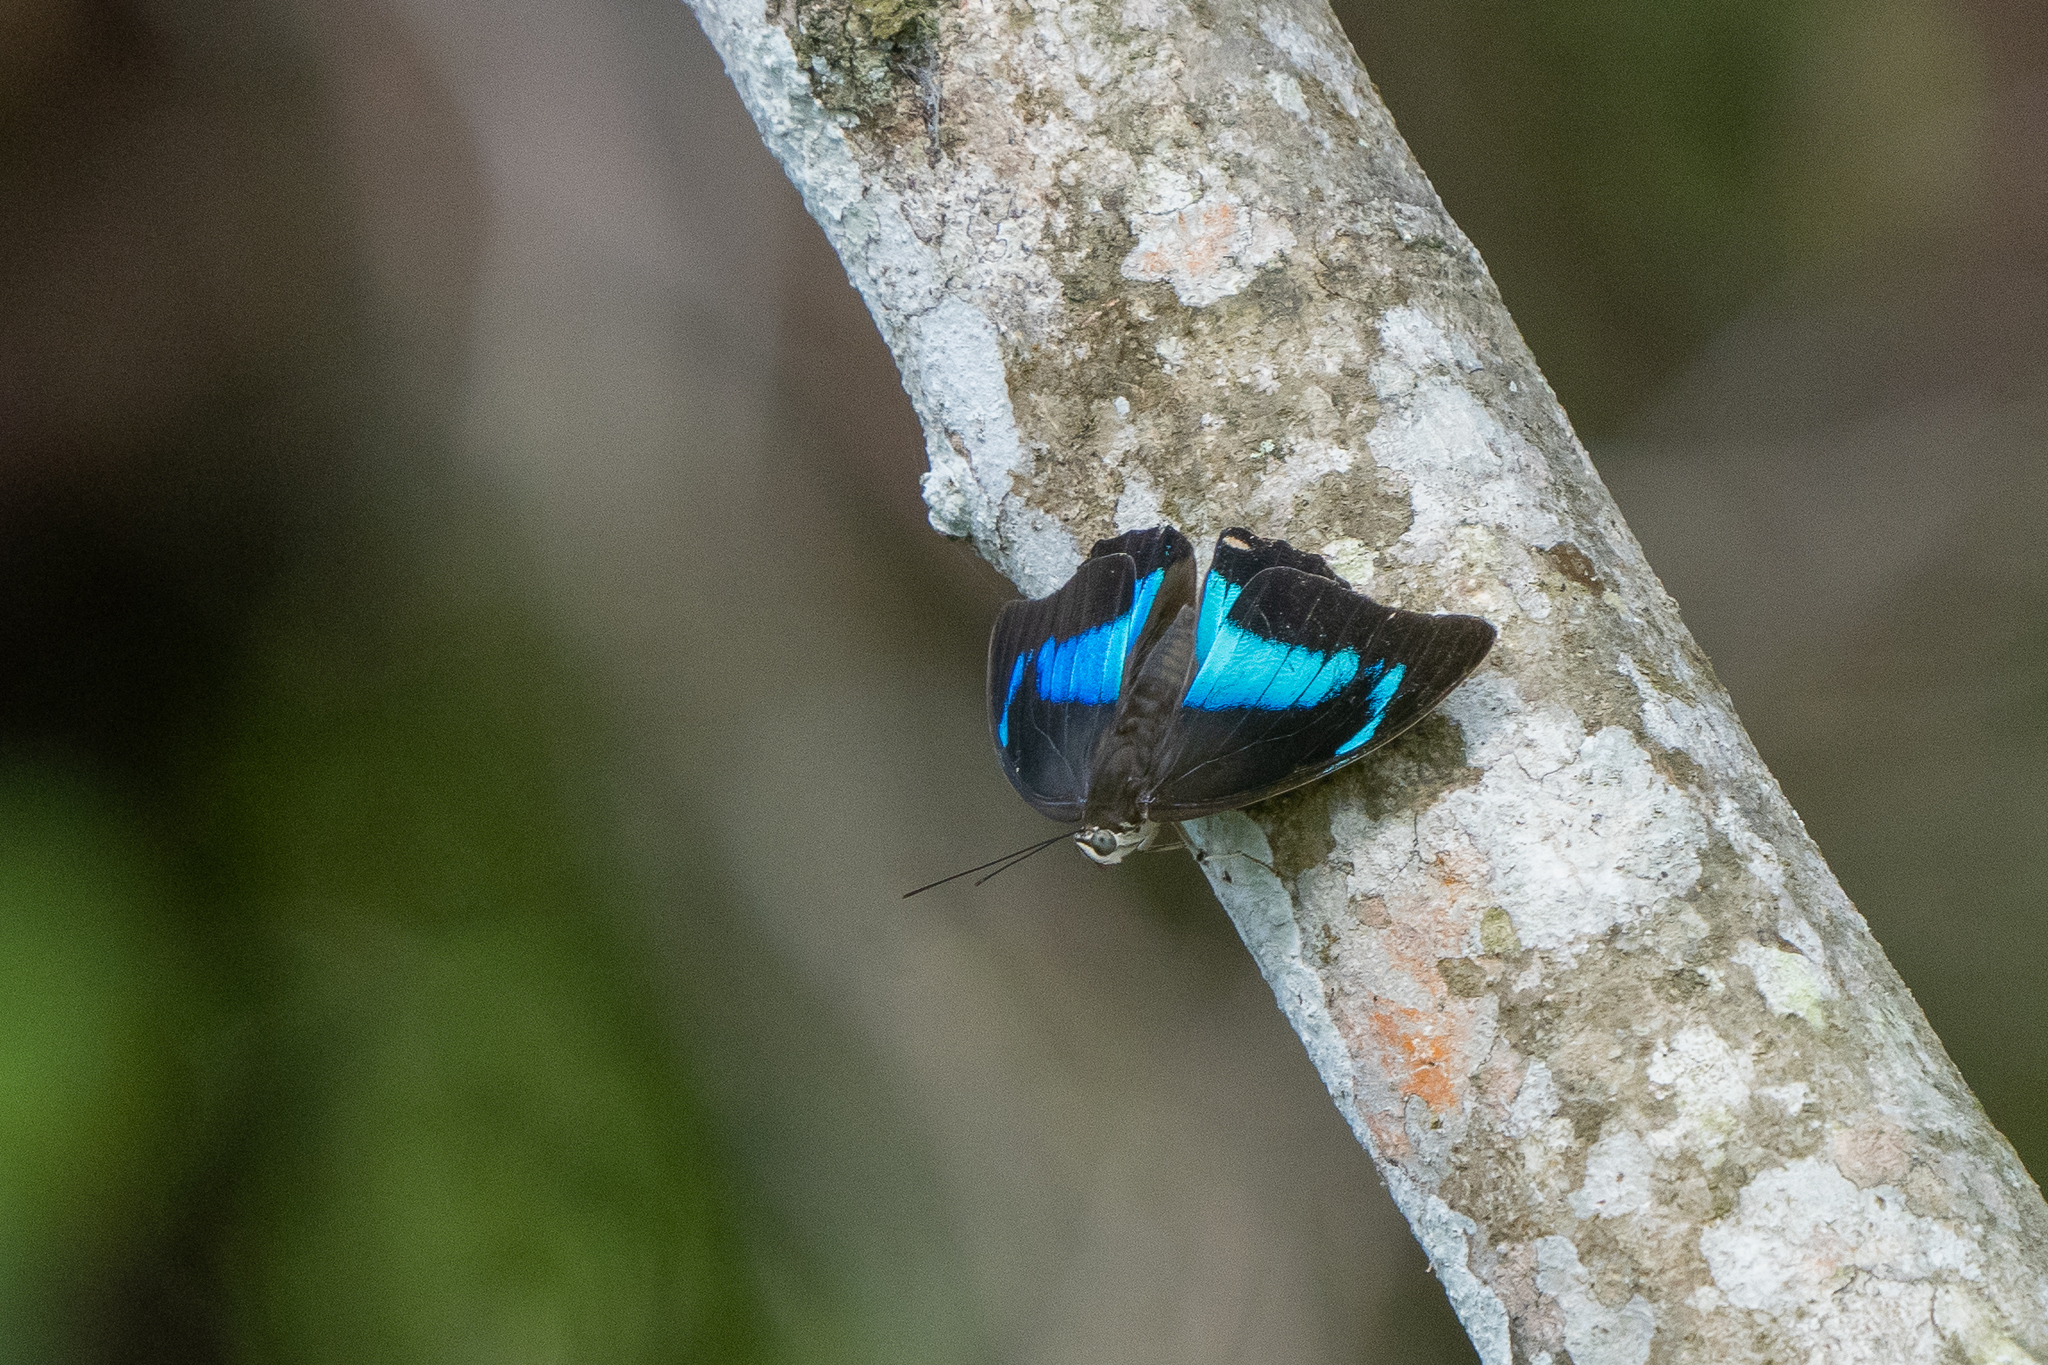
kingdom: Animalia
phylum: Arthropoda
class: Insecta
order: Lepidoptera
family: Nymphalidae
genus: Prepona
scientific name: Prepona demophon
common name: One-spotted prepona
